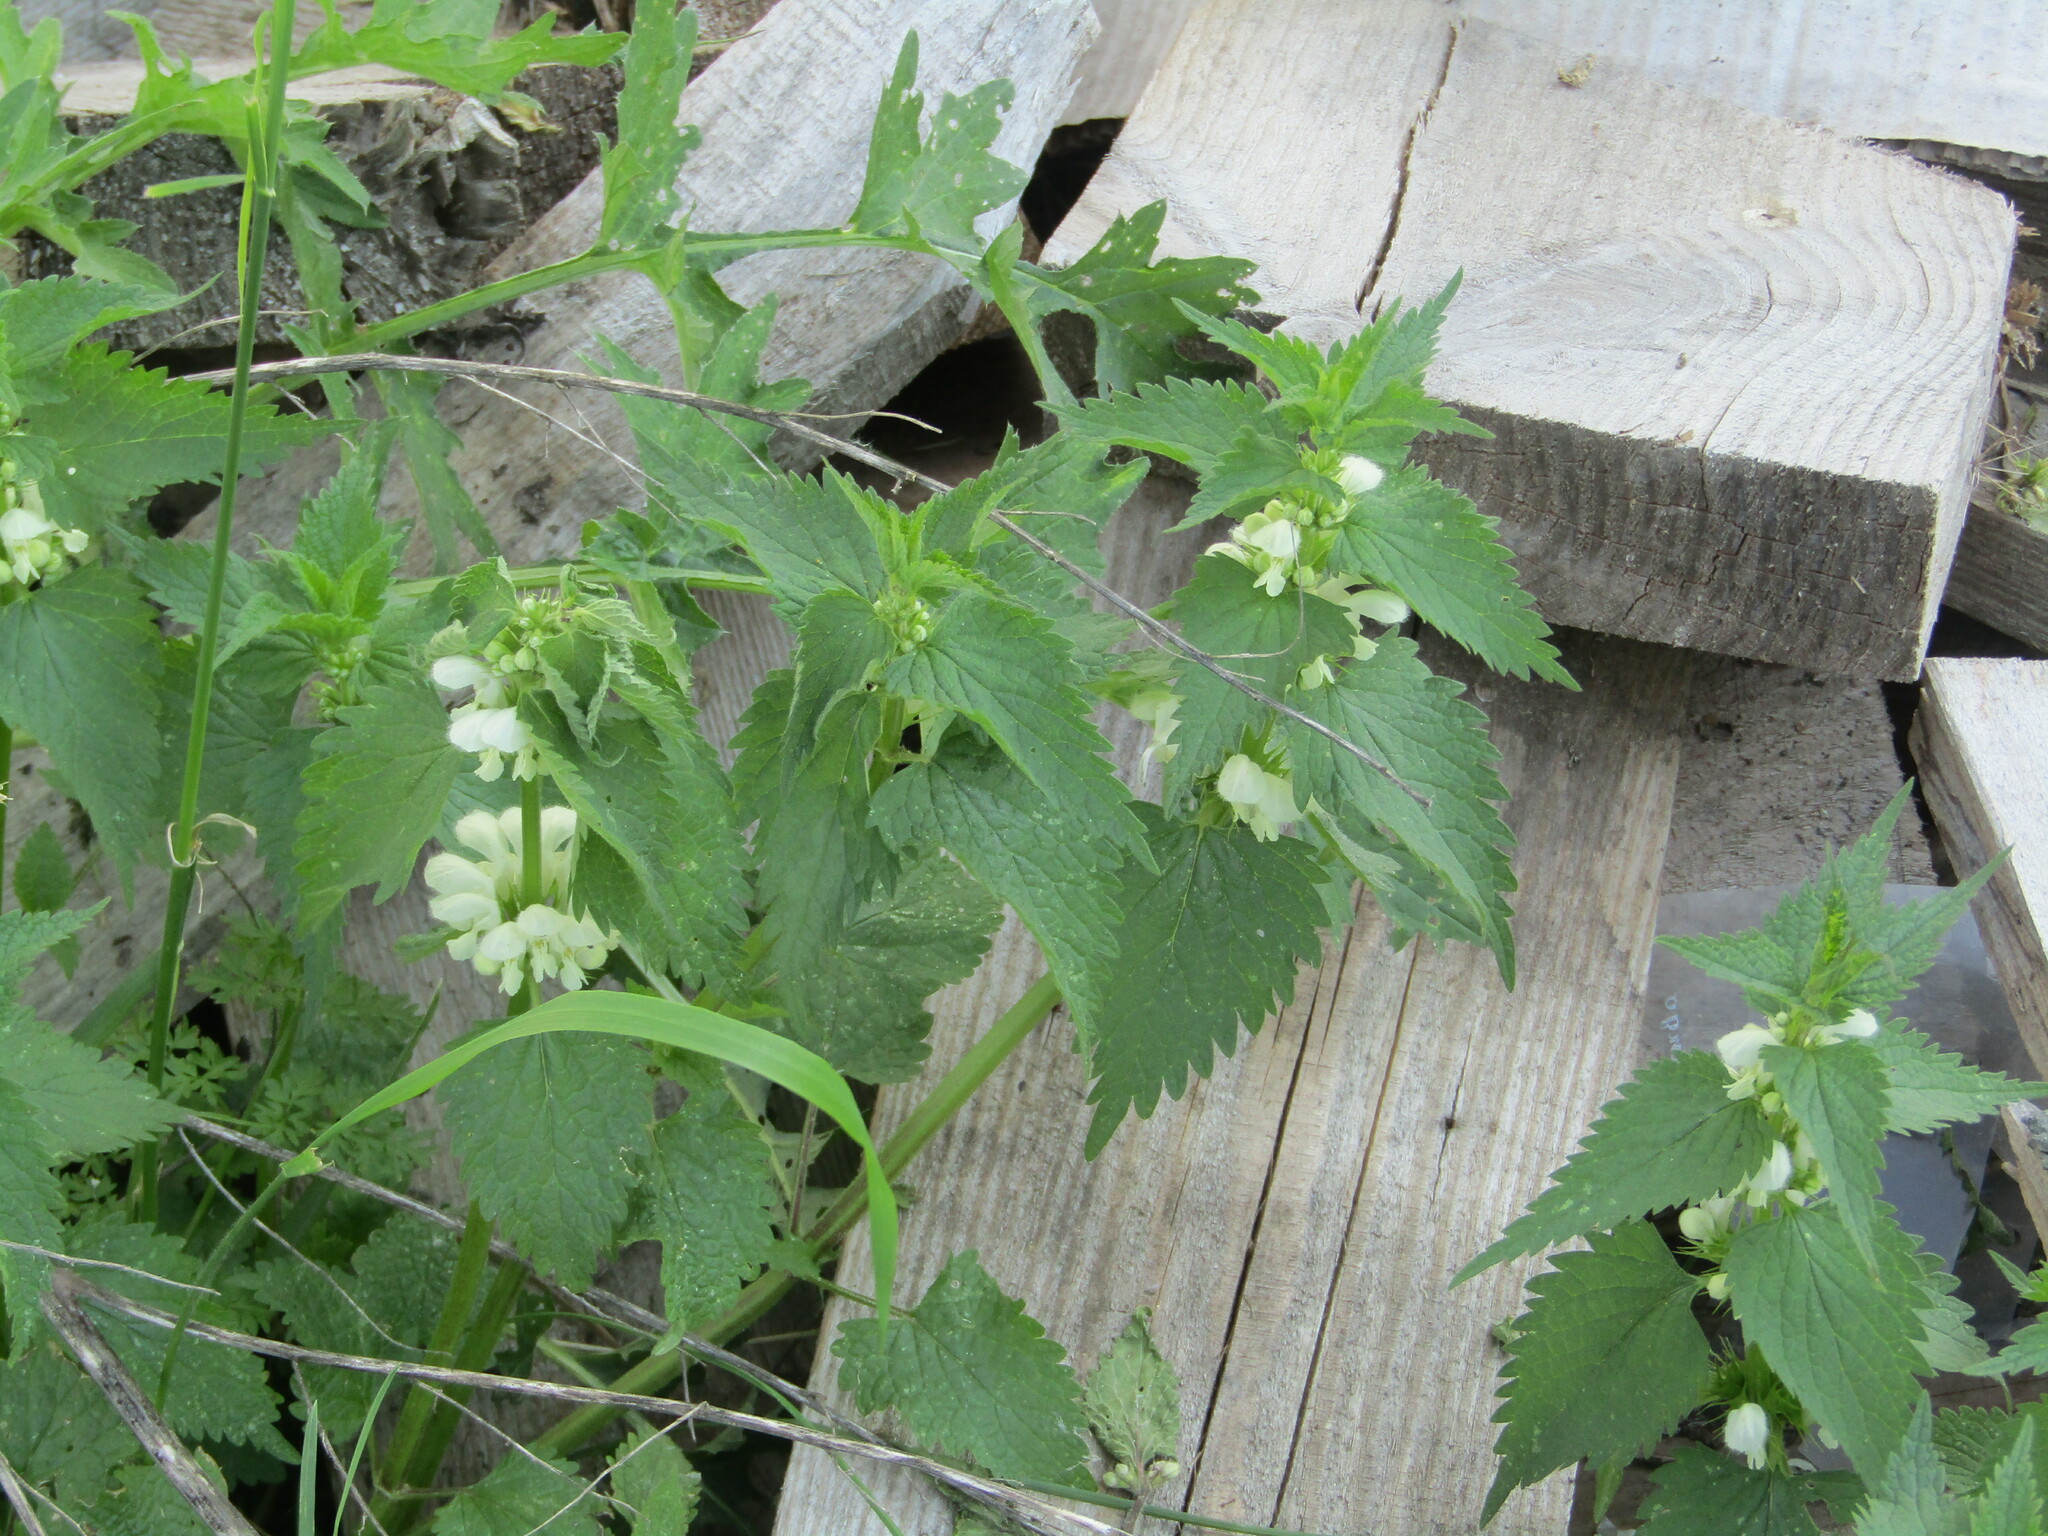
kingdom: Plantae
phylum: Tracheophyta
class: Magnoliopsida
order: Lamiales
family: Lamiaceae
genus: Lamium
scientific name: Lamium album
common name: White dead-nettle
